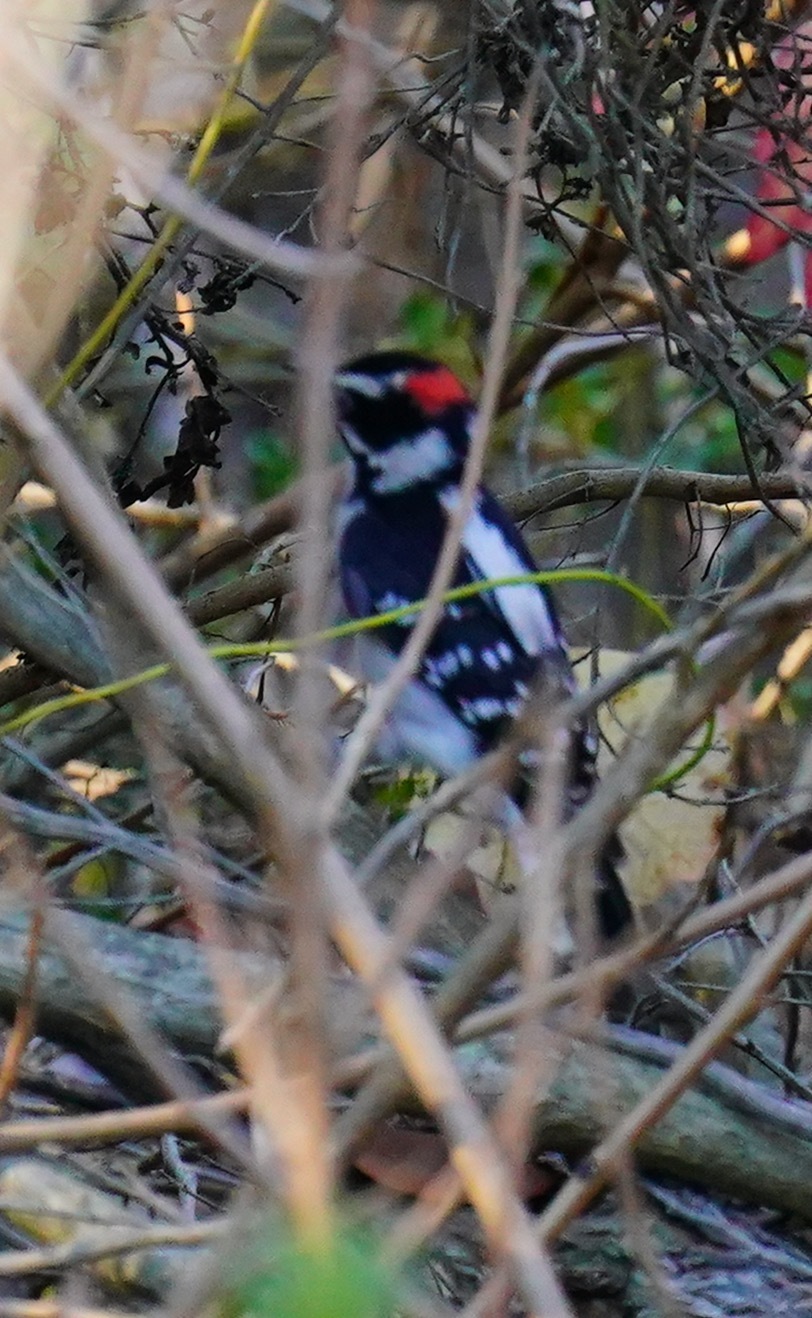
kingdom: Animalia
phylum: Chordata
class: Aves
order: Piciformes
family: Picidae
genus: Dryobates
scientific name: Dryobates pubescens
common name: Downy woodpecker
